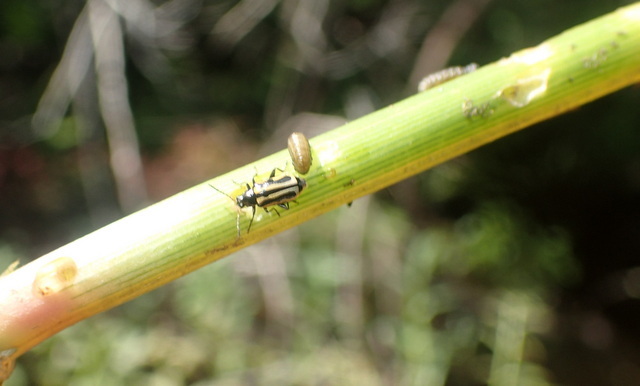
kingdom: Animalia
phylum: Arthropoda
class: Insecta
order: Coleoptera
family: Chrysomelidae
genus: Agasicles
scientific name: Agasicles hygrophila
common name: Alligatorweed flea beetle
